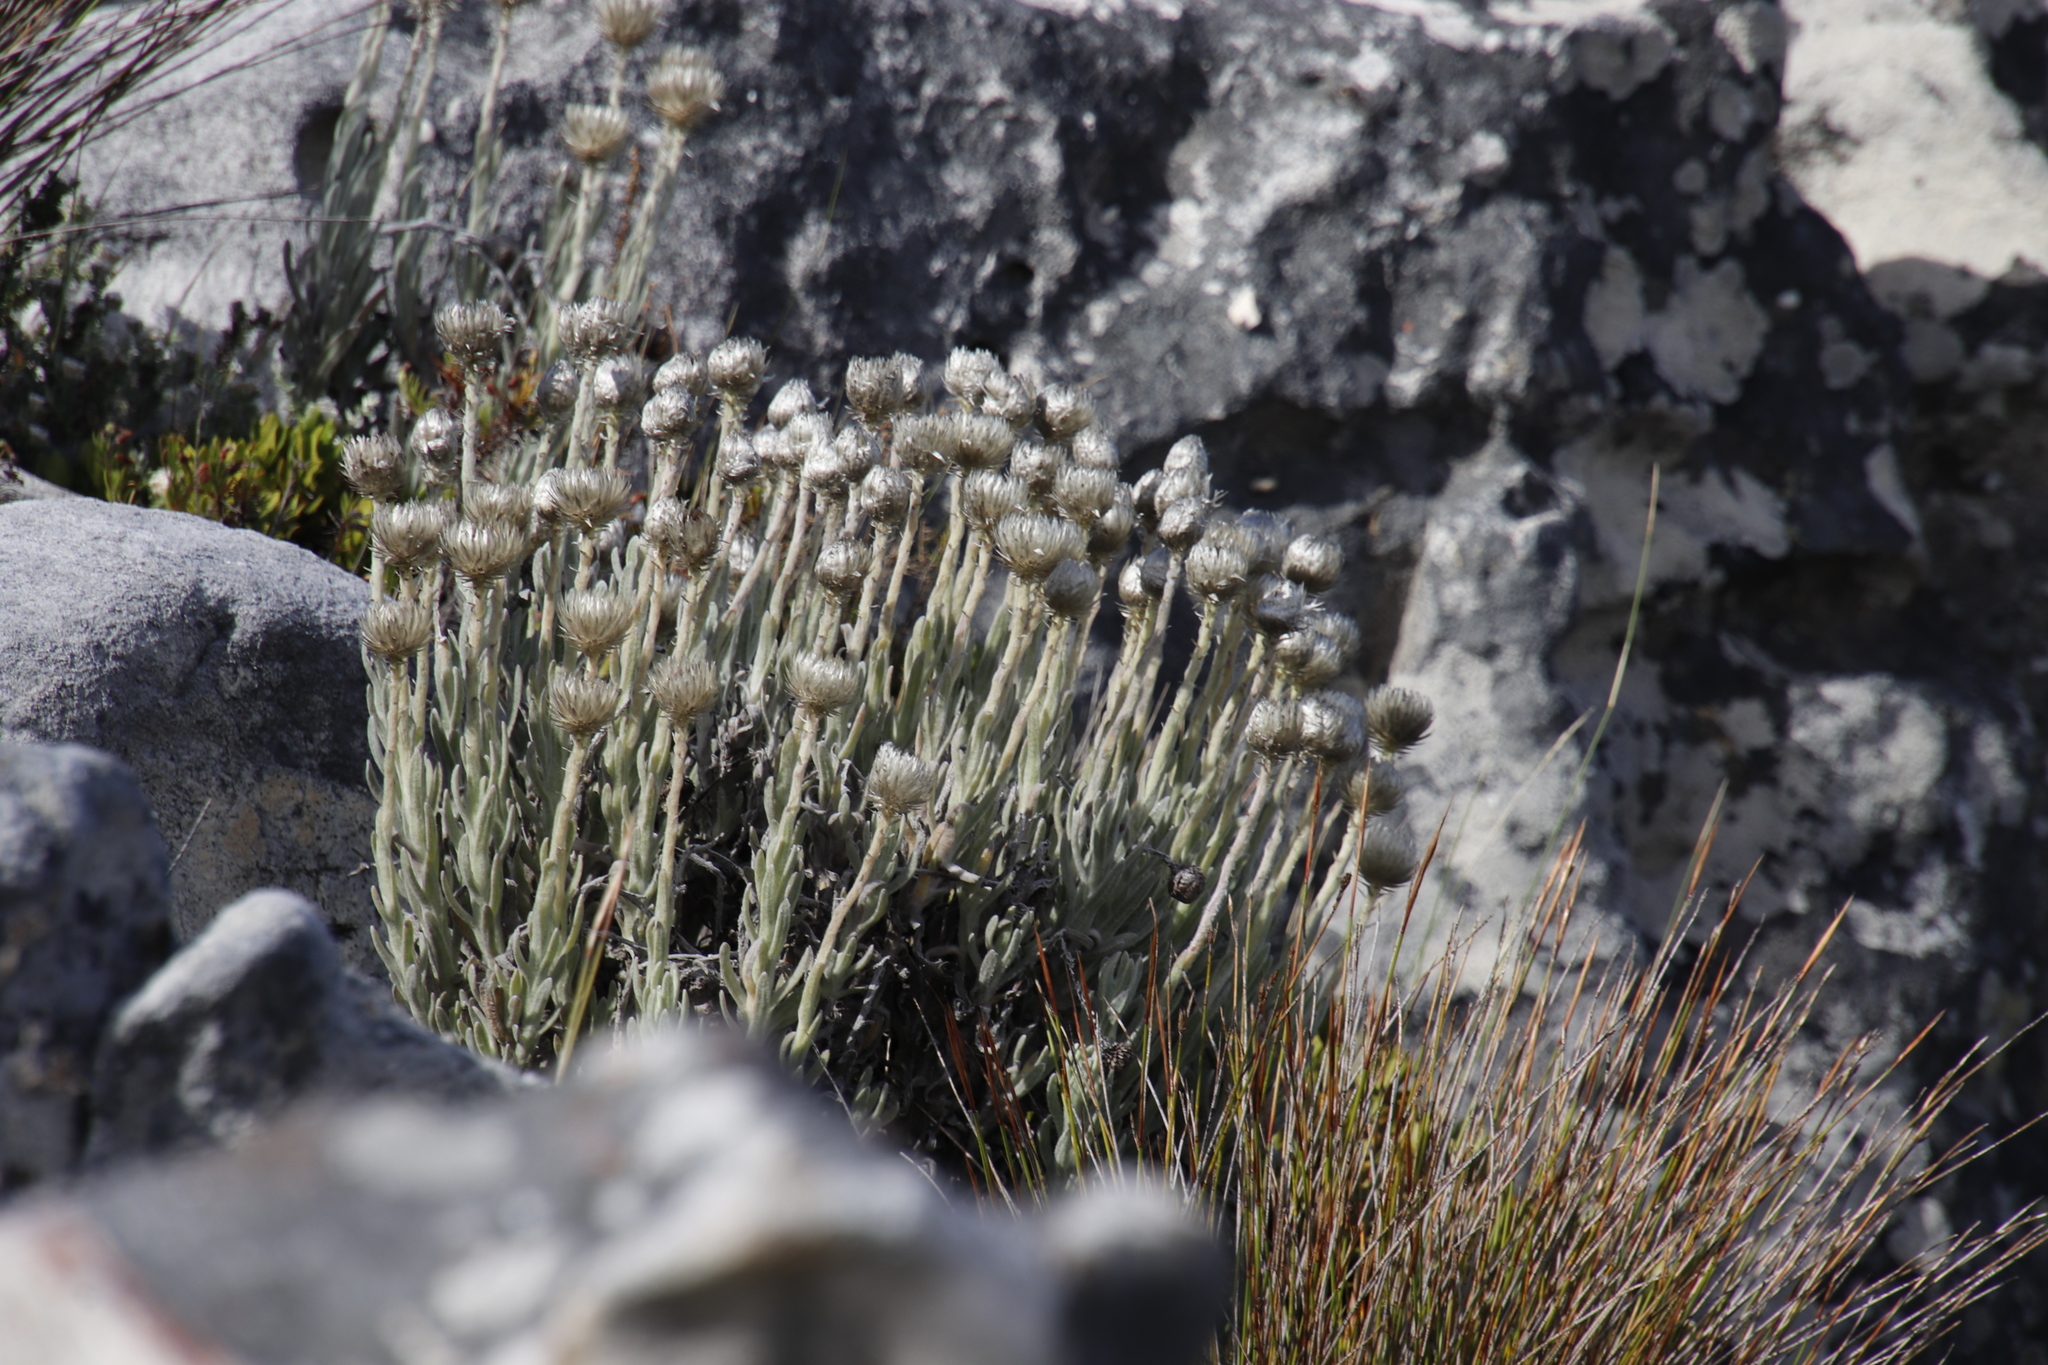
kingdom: Plantae
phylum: Tracheophyta
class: Magnoliopsida
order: Asterales
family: Asteraceae
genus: Syncarpha
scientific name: Syncarpha vestita
